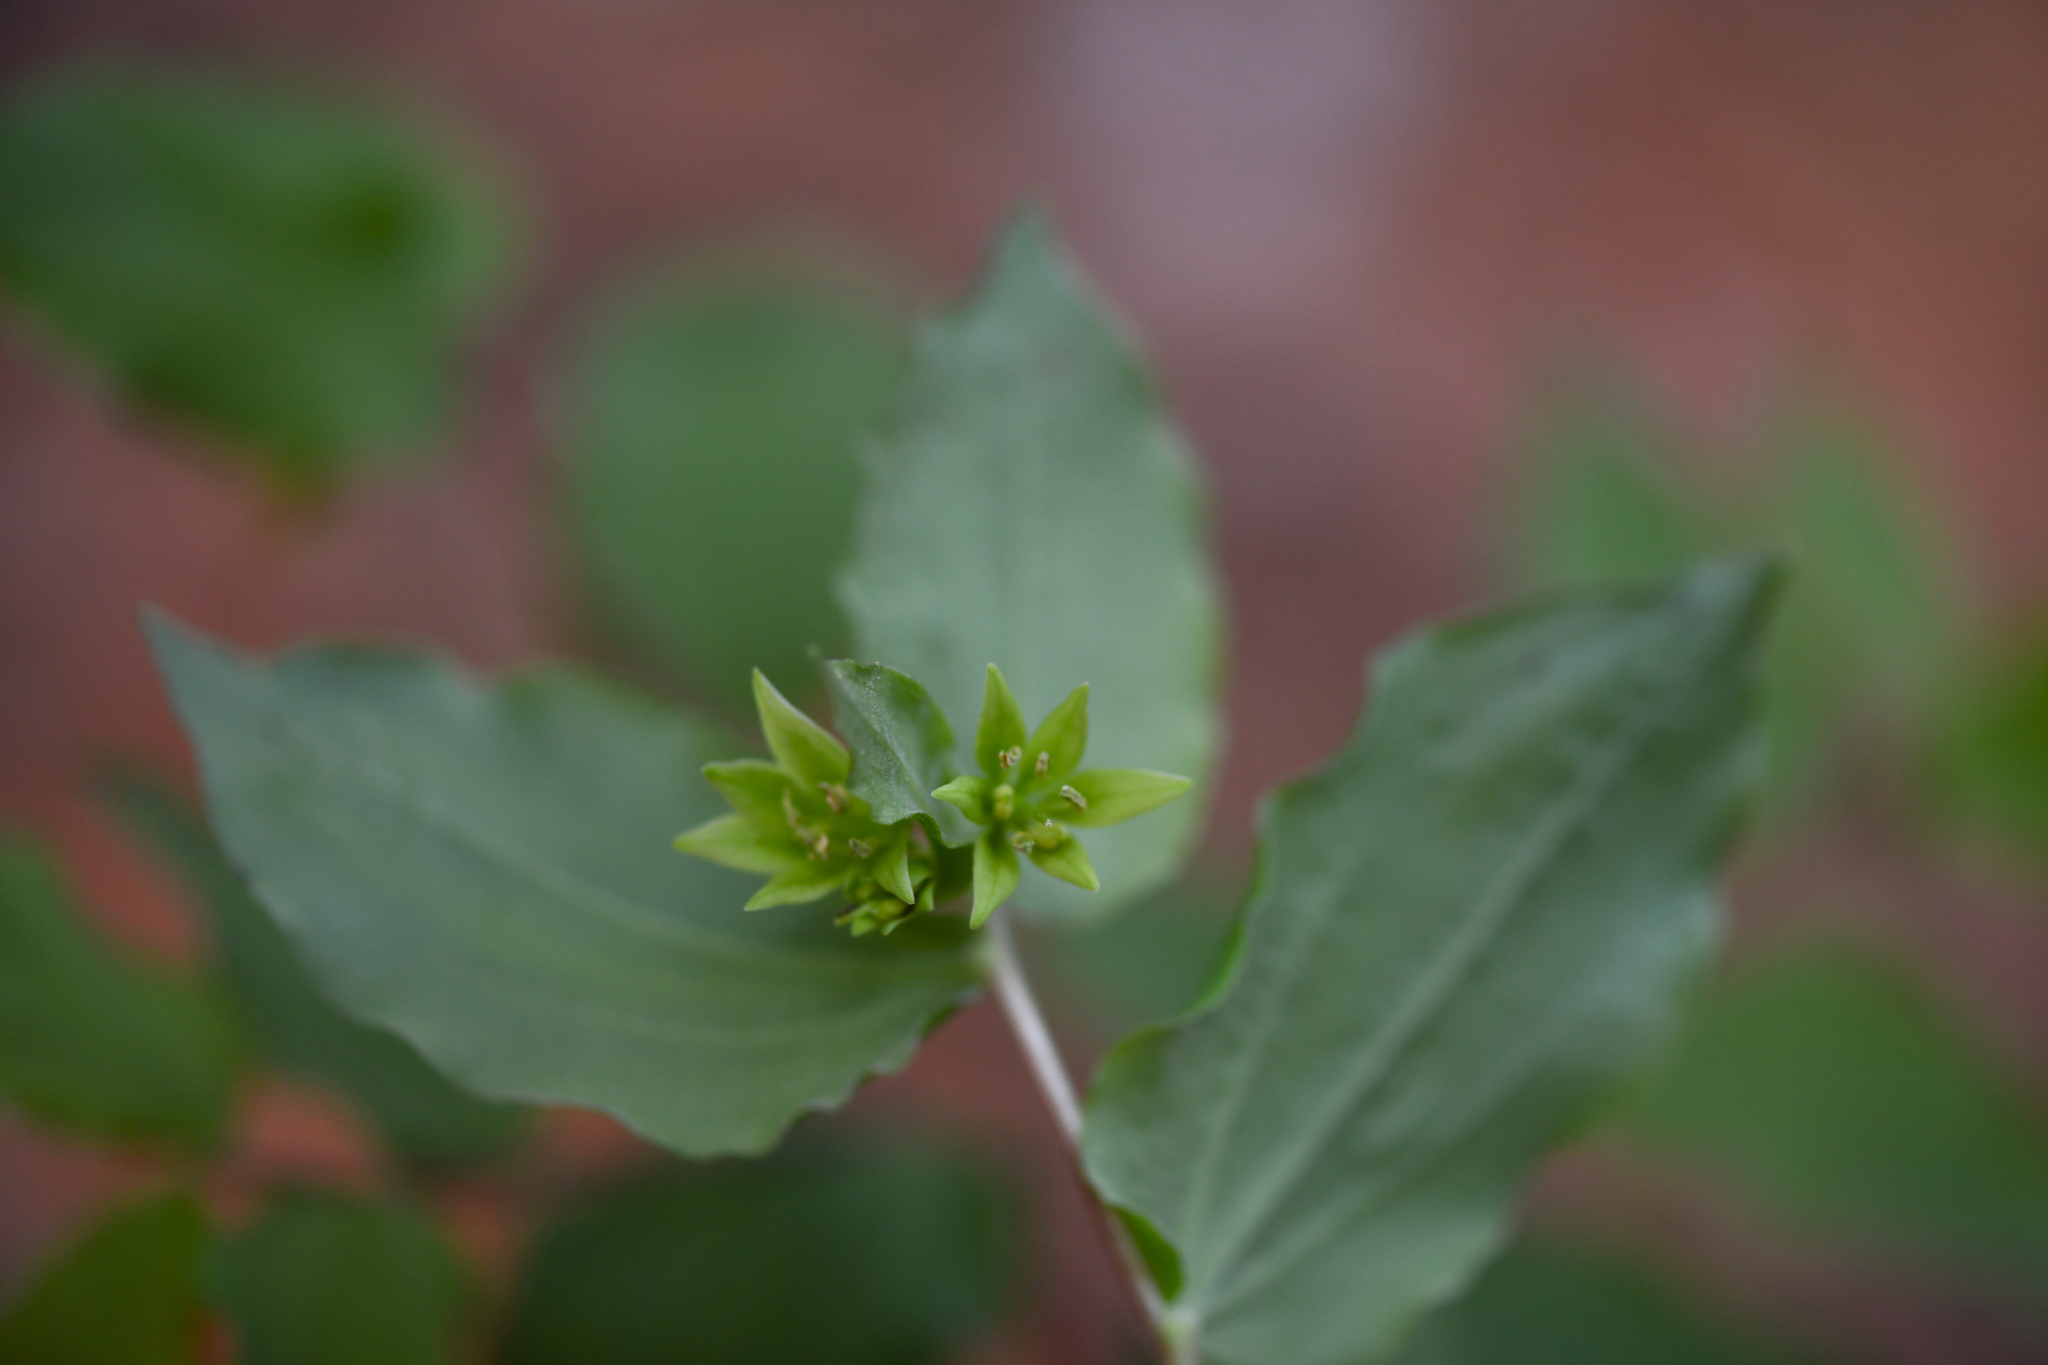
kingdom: Plantae
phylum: Tracheophyta
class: Liliopsida
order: Liliales
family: Liliaceae
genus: Prosartes
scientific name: Prosartes hookeri
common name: Fairy-bells
